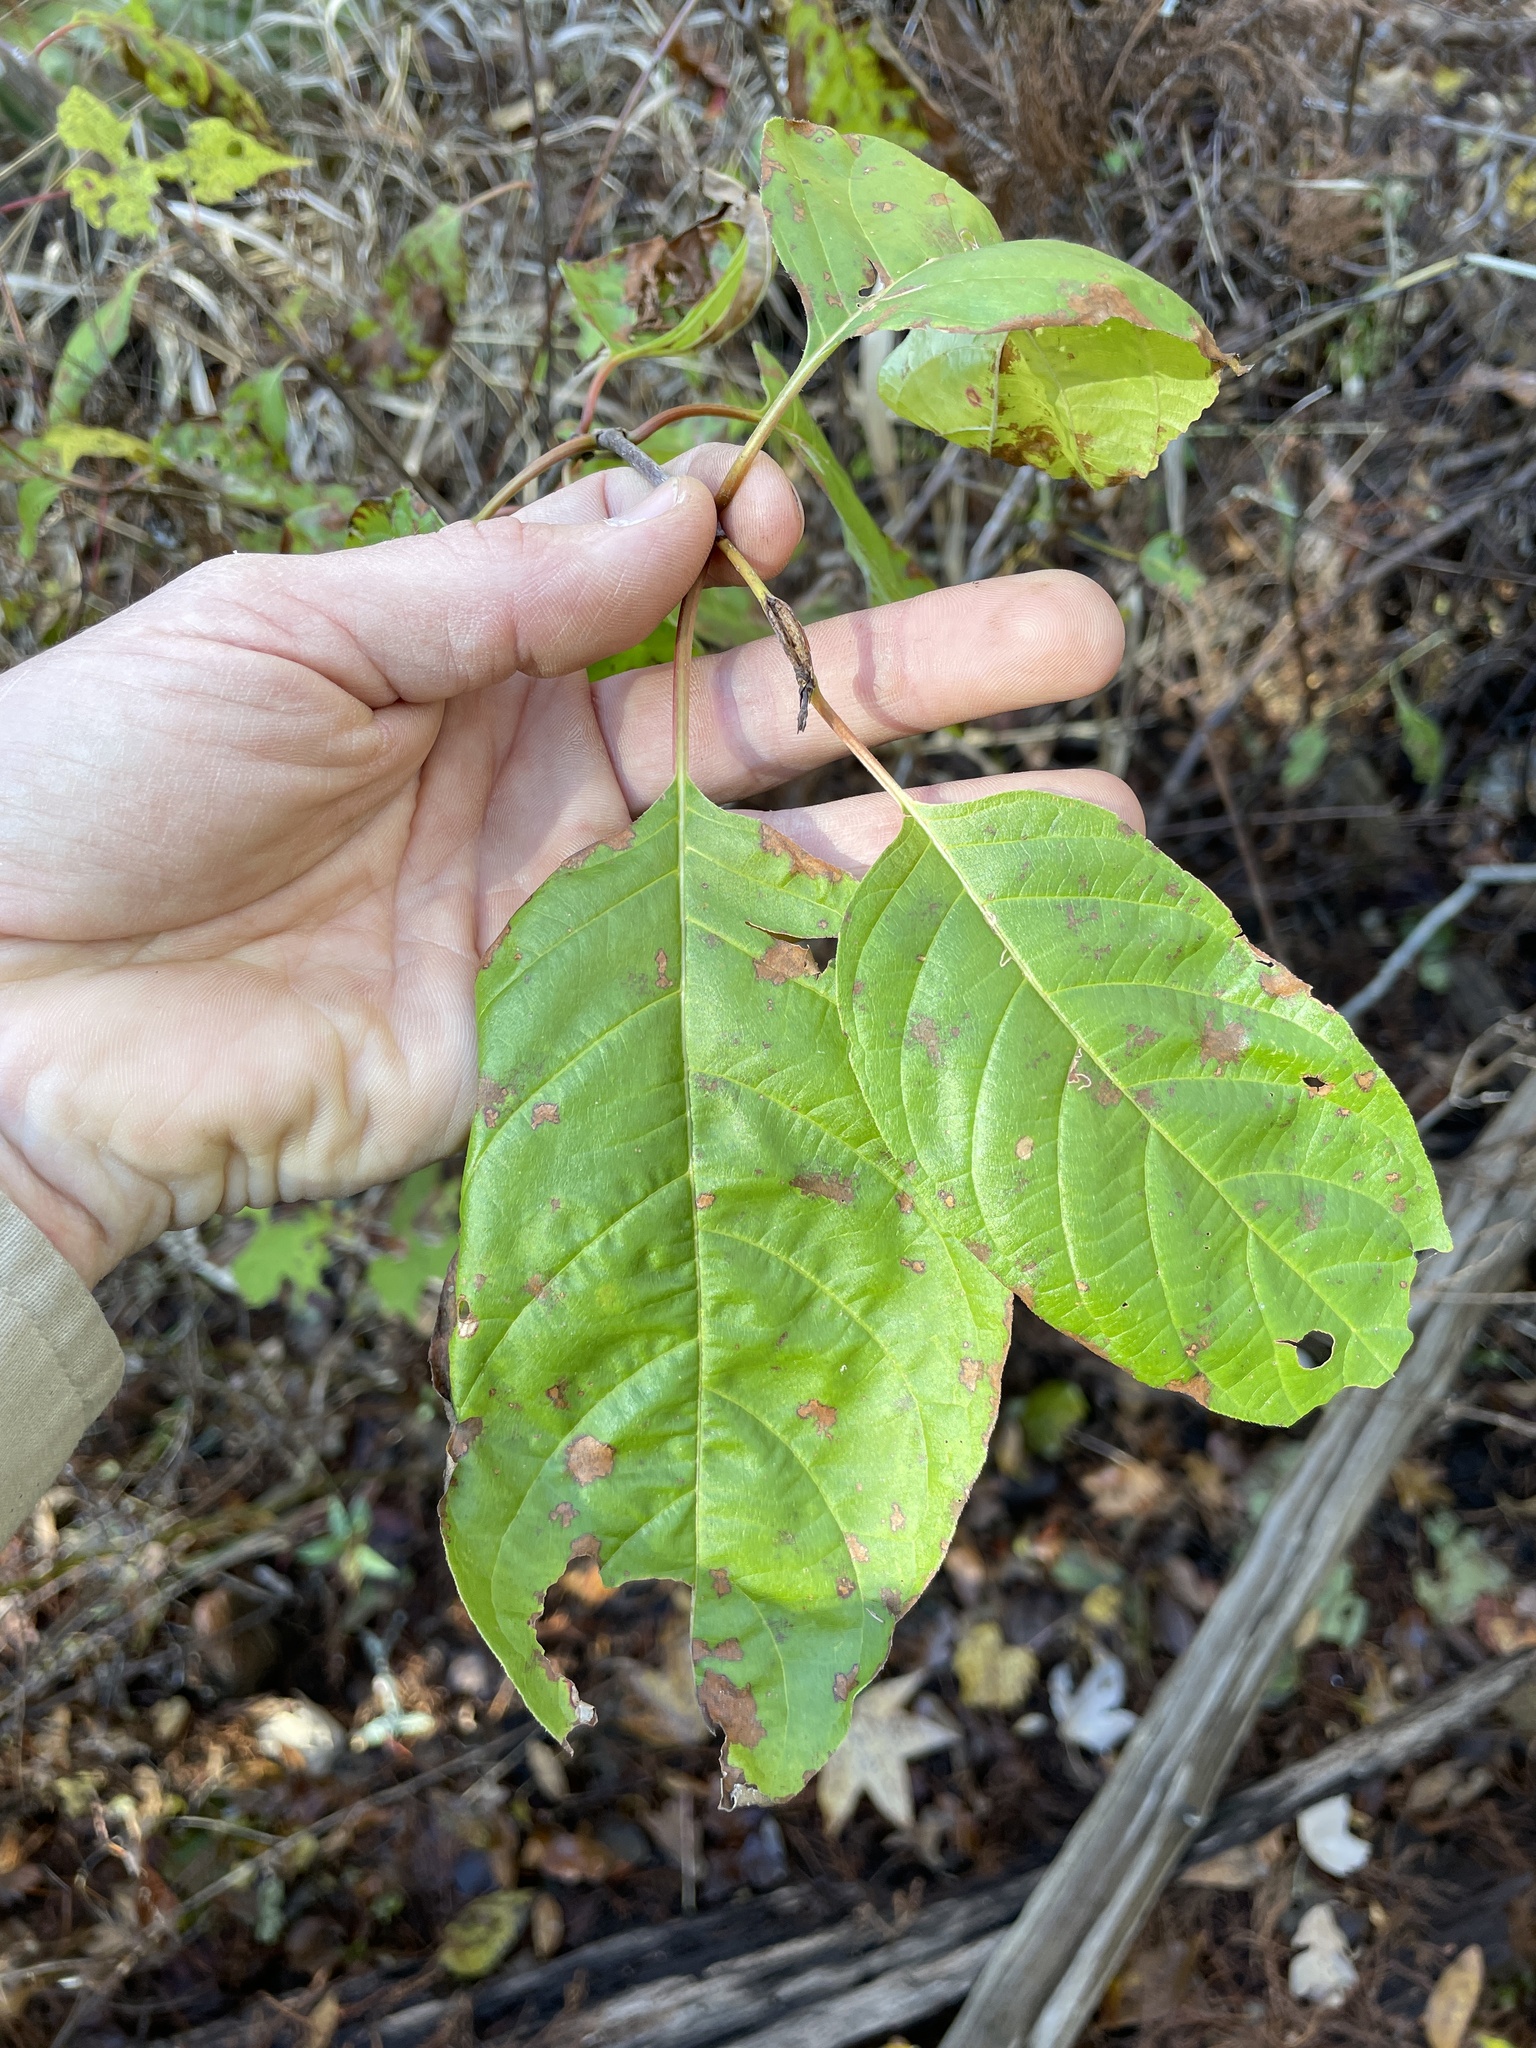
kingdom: Plantae
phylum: Tracheophyta
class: Magnoliopsida
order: Gentianales
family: Rubiaceae
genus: Cephalanthus
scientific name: Cephalanthus occidentalis
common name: Button-willow
